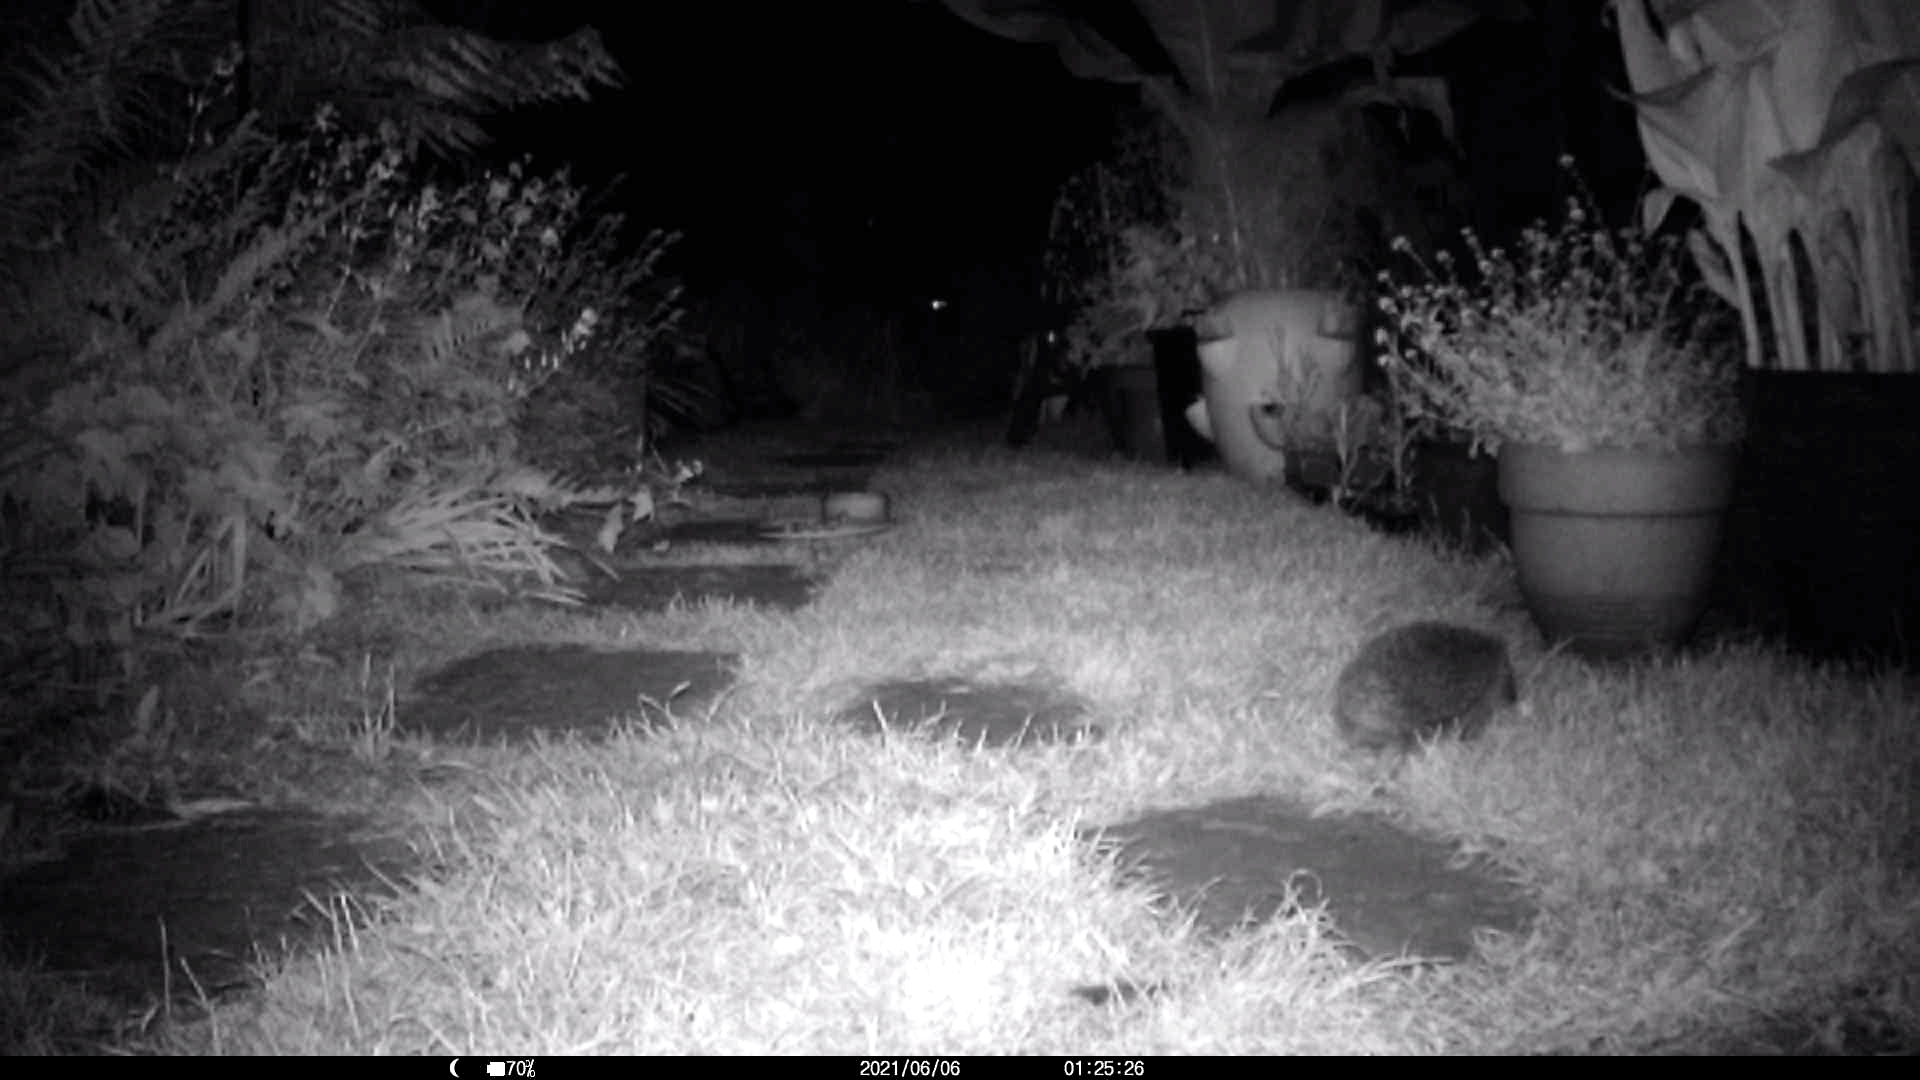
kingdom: Animalia
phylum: Chordata
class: Mammalia
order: Erinaceomorpha
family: Erinaceidae
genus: Erinaceus
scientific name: Erinaceus europaeus
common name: West european hedgehog
